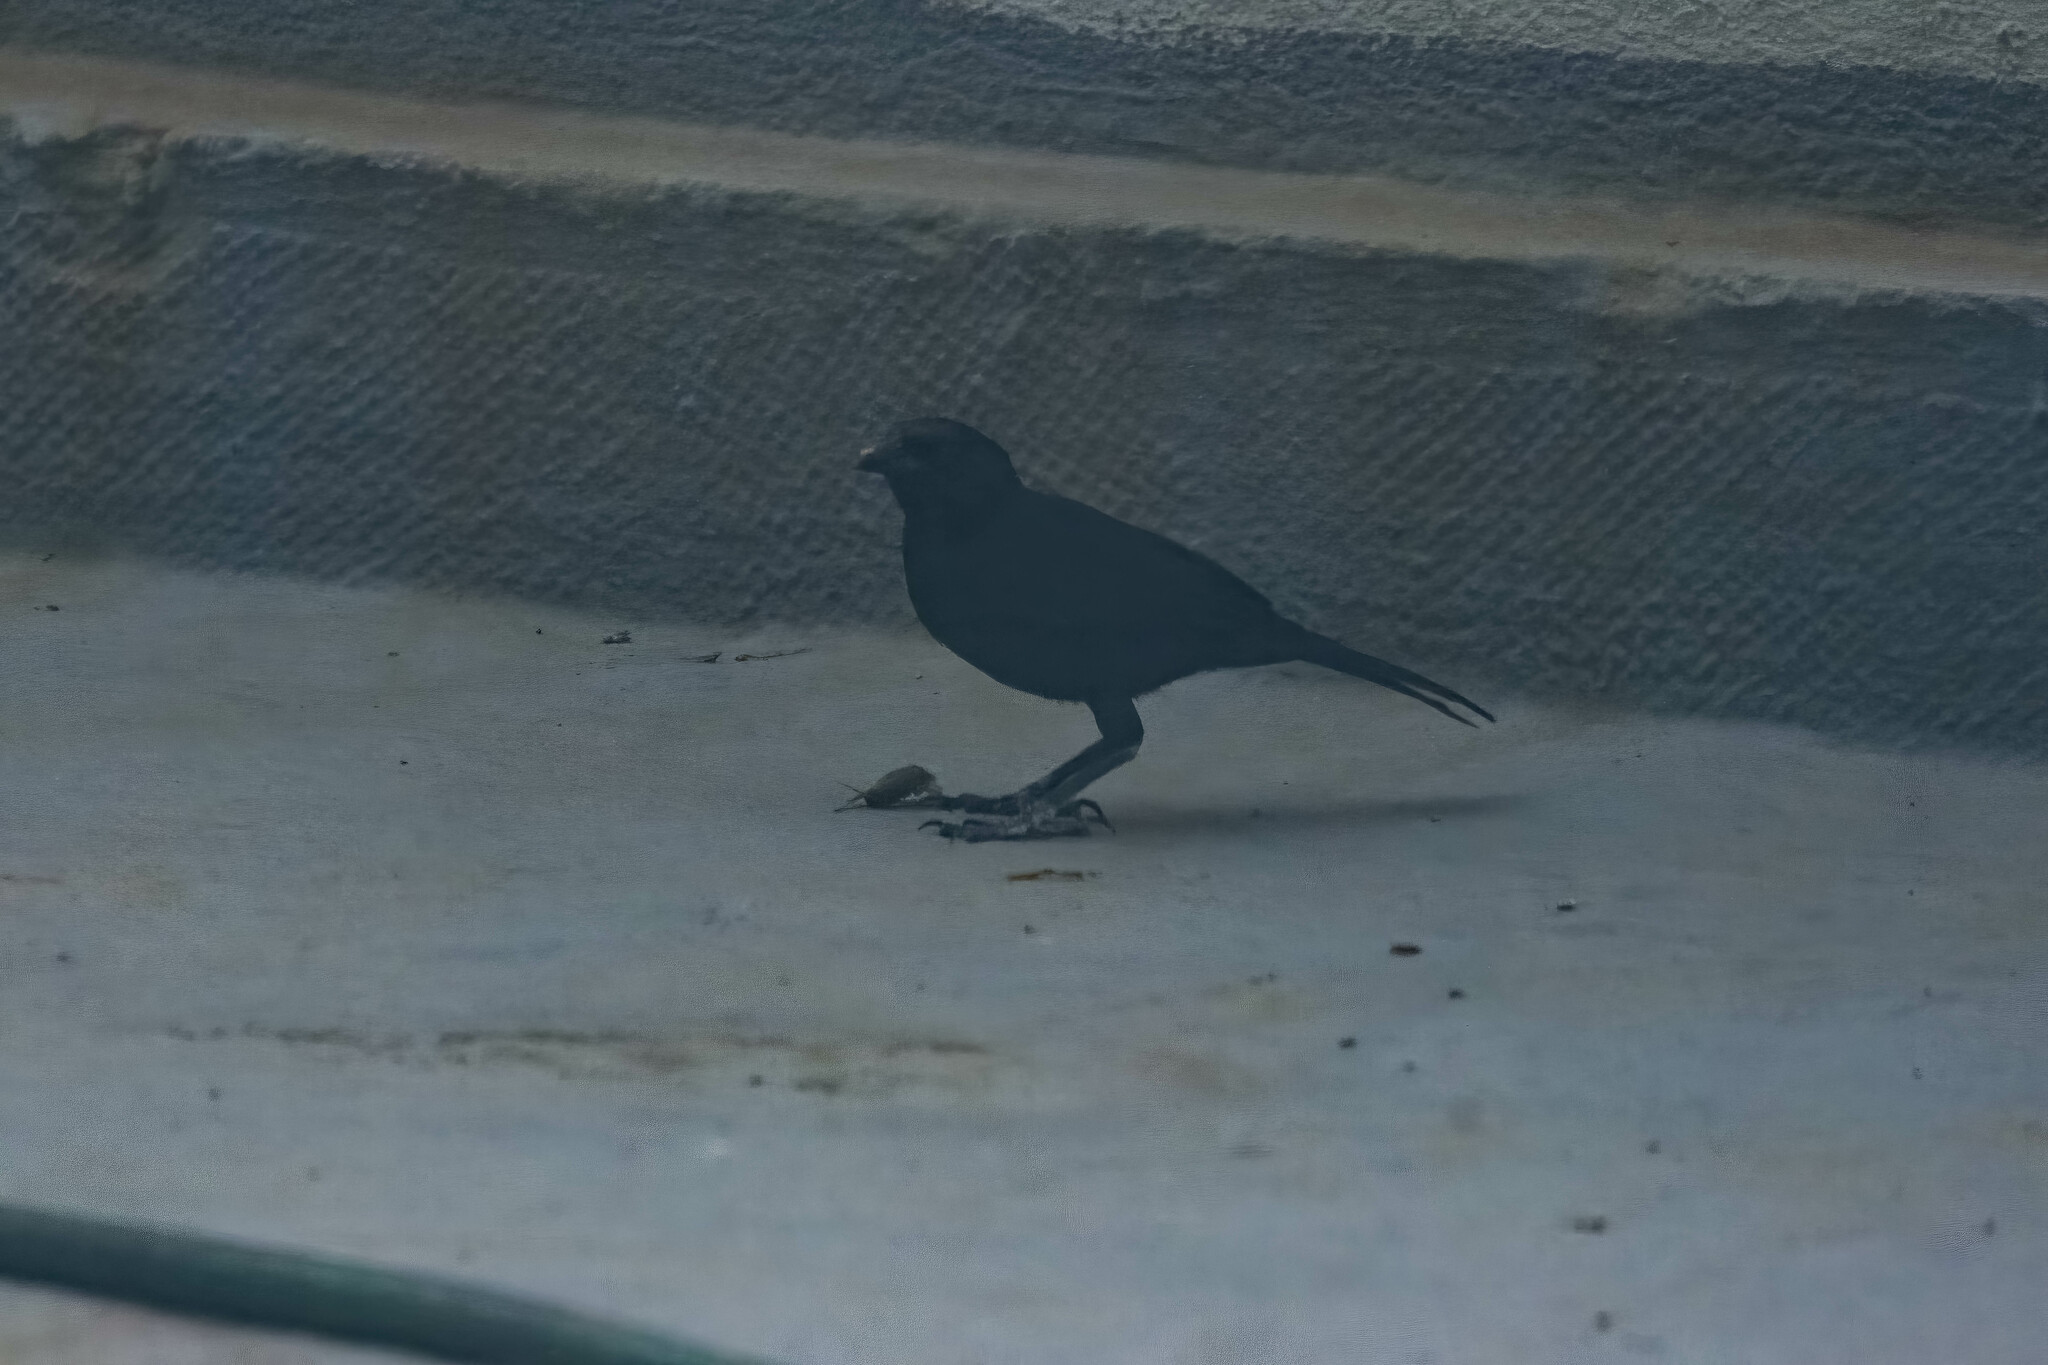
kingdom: Animalia
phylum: Chordata
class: Aves
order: Passeriformes
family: Icteridae
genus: Dives
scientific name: Dives warczewiczi
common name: Scrub blackbird
